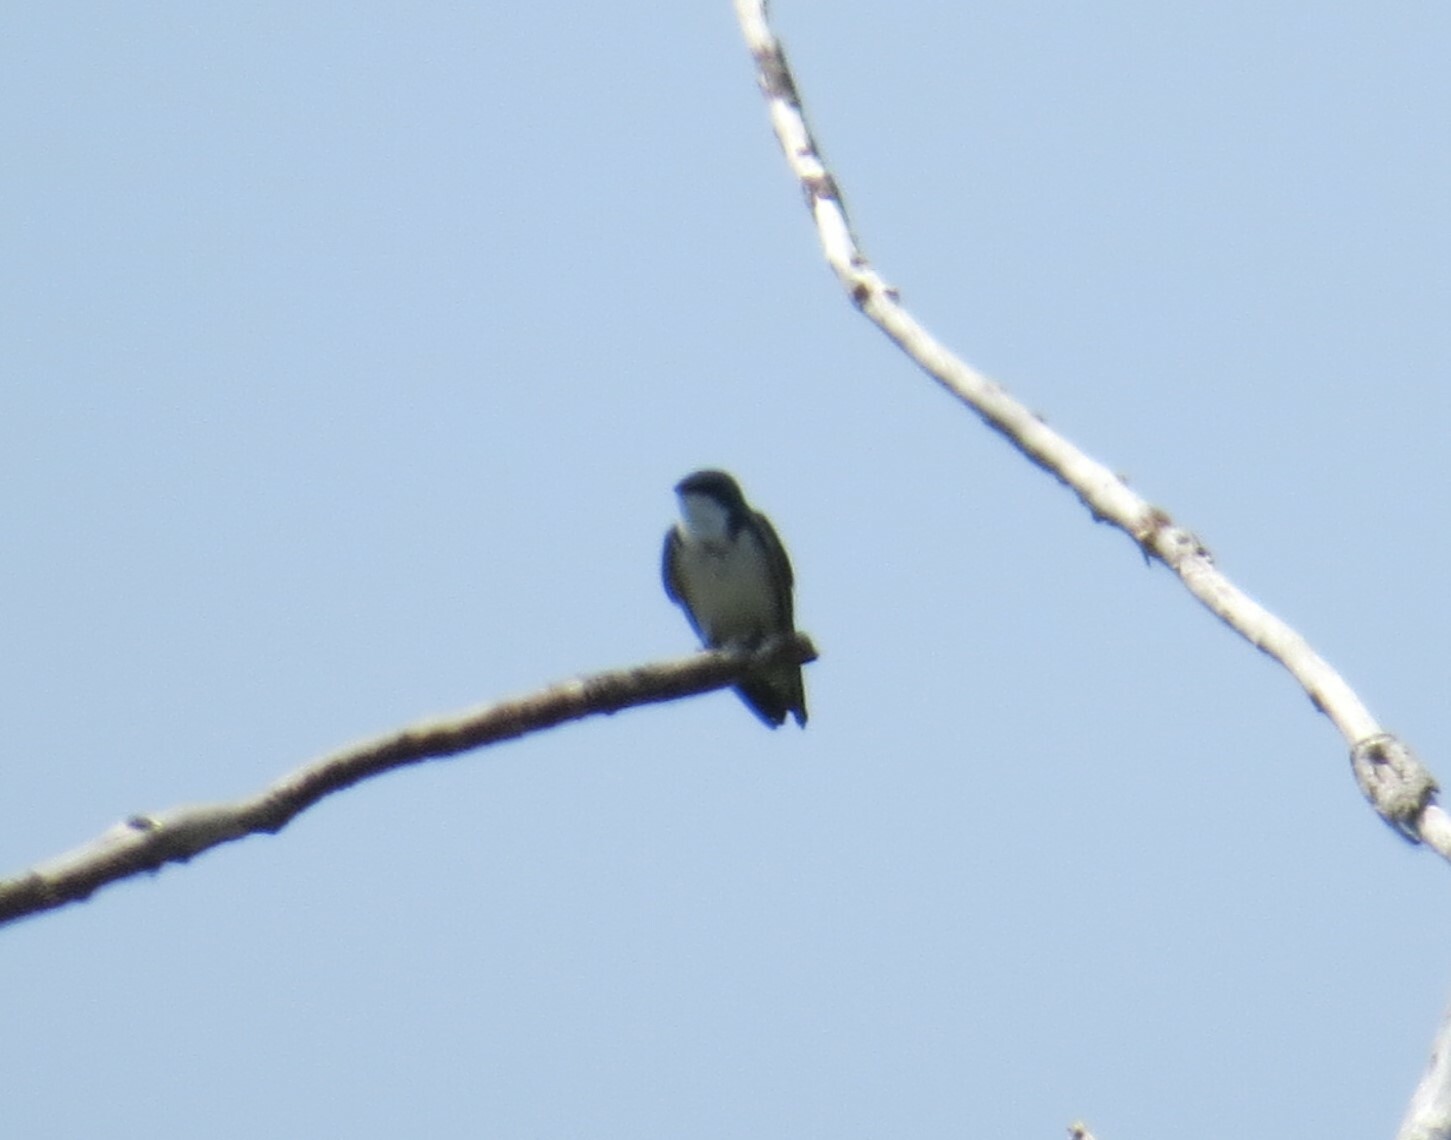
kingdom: Animalia
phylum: Chordata
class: Aves
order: Passeriformes
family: Hirundinidae
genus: Tachycineta
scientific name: Tachycineta bicolor
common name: Tree swallow
